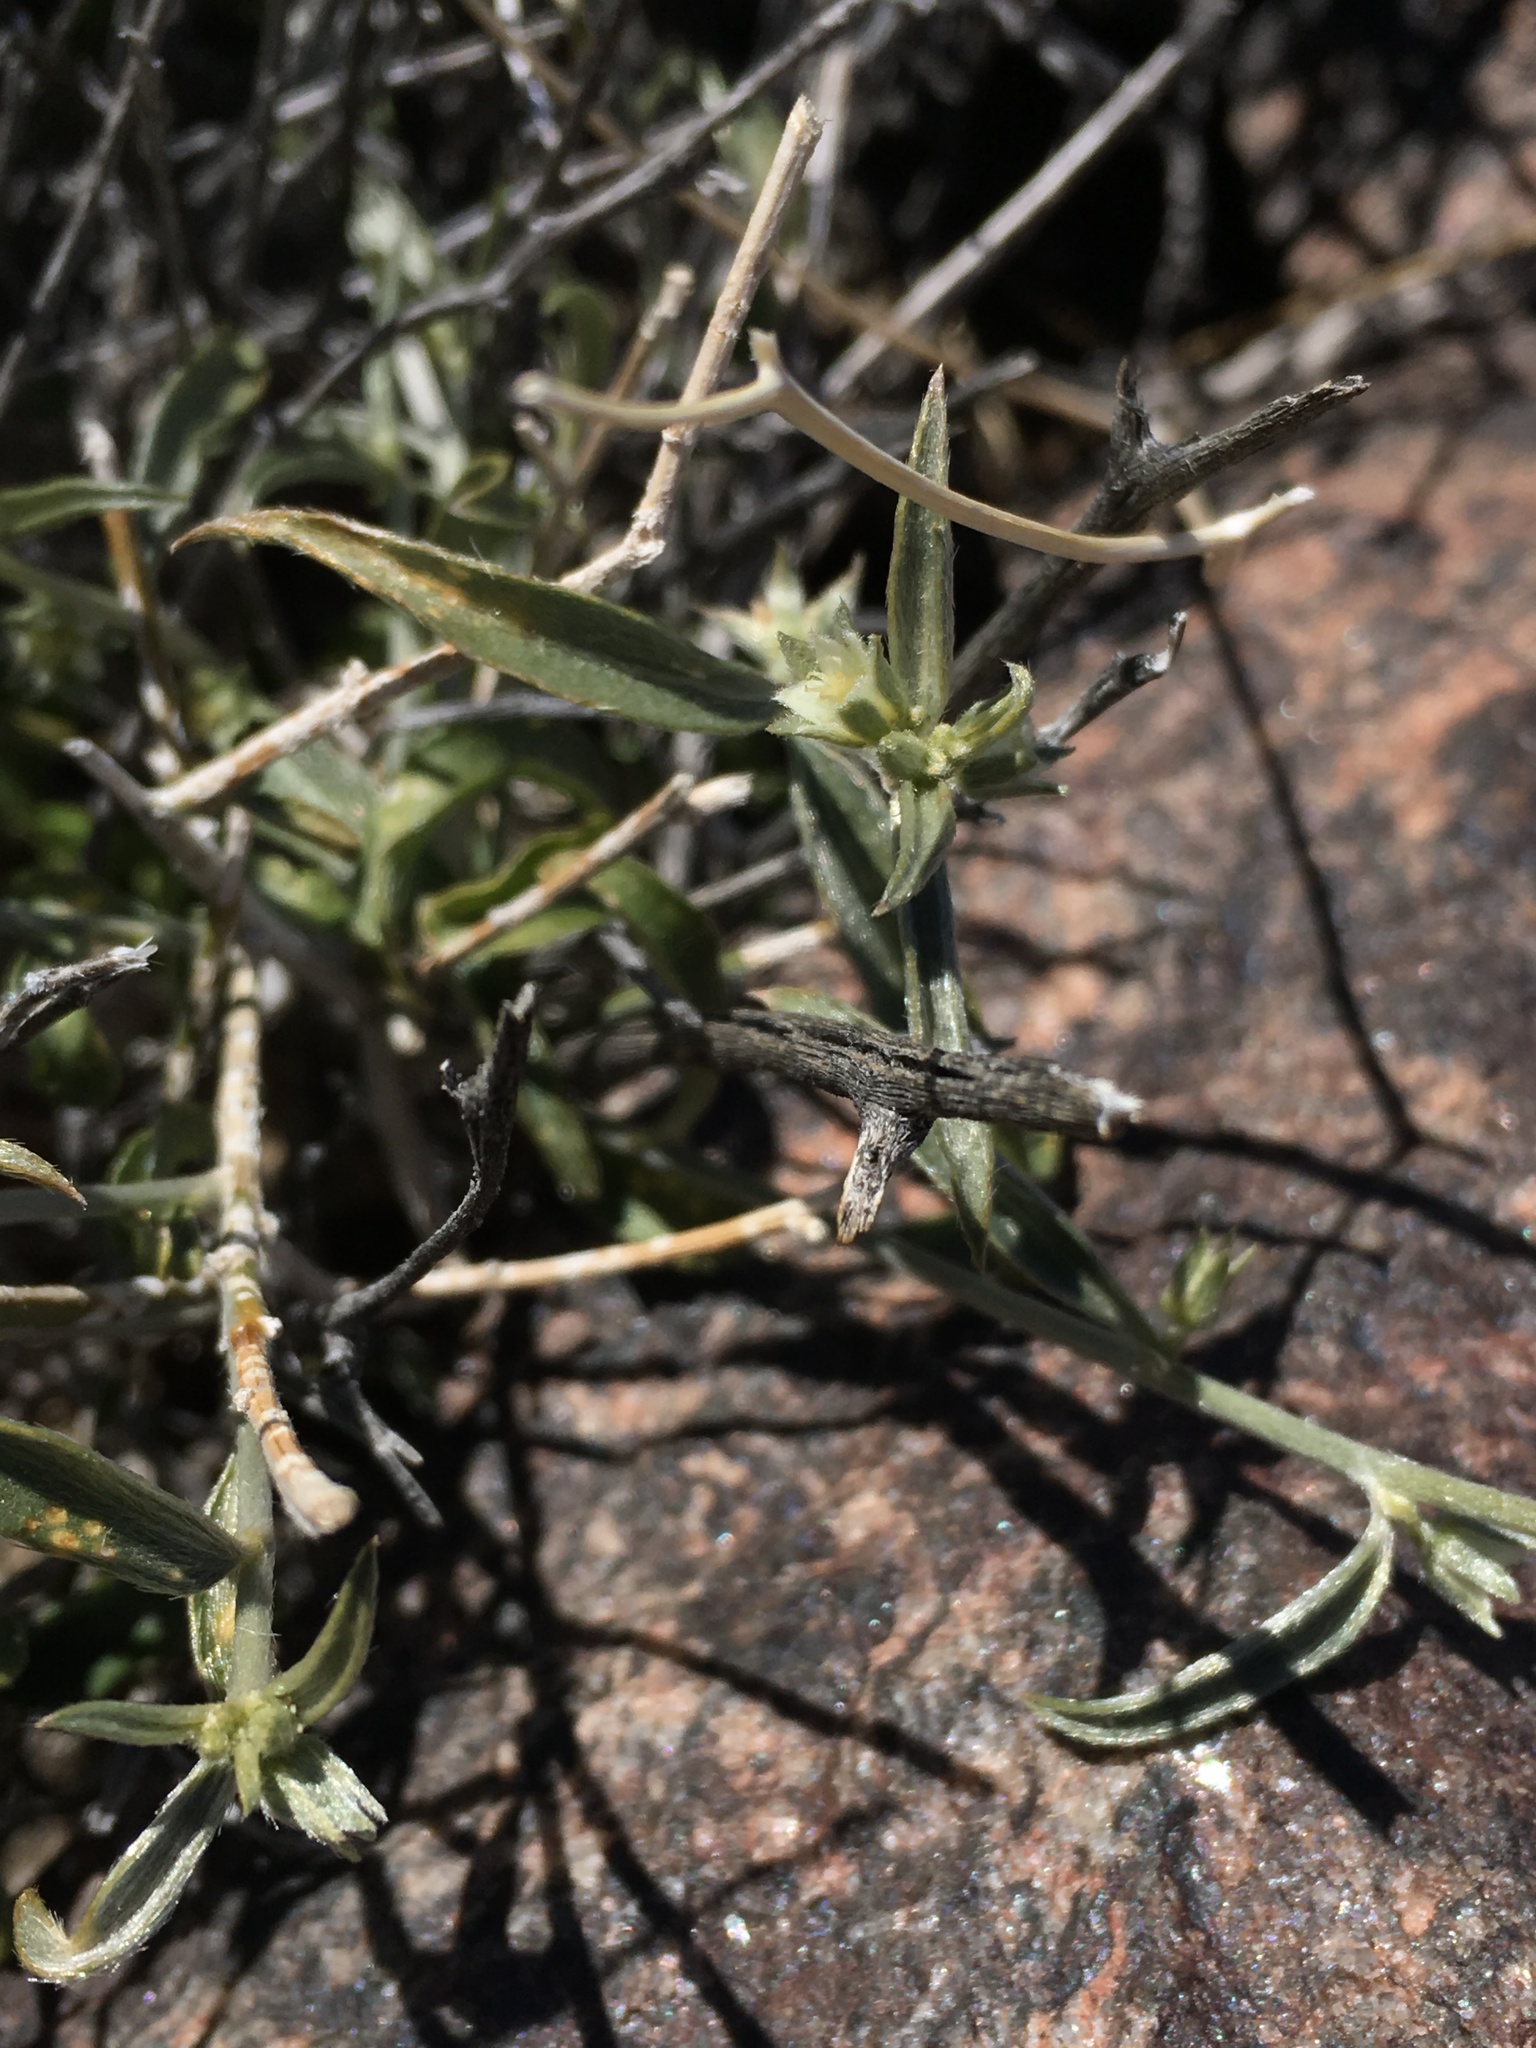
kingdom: Plantae
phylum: Tracheophyta
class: Magnoliopsida
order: Malpighiales
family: Euphorbiaceae
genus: Ditaxis
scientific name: Ditaxis lanceolata
